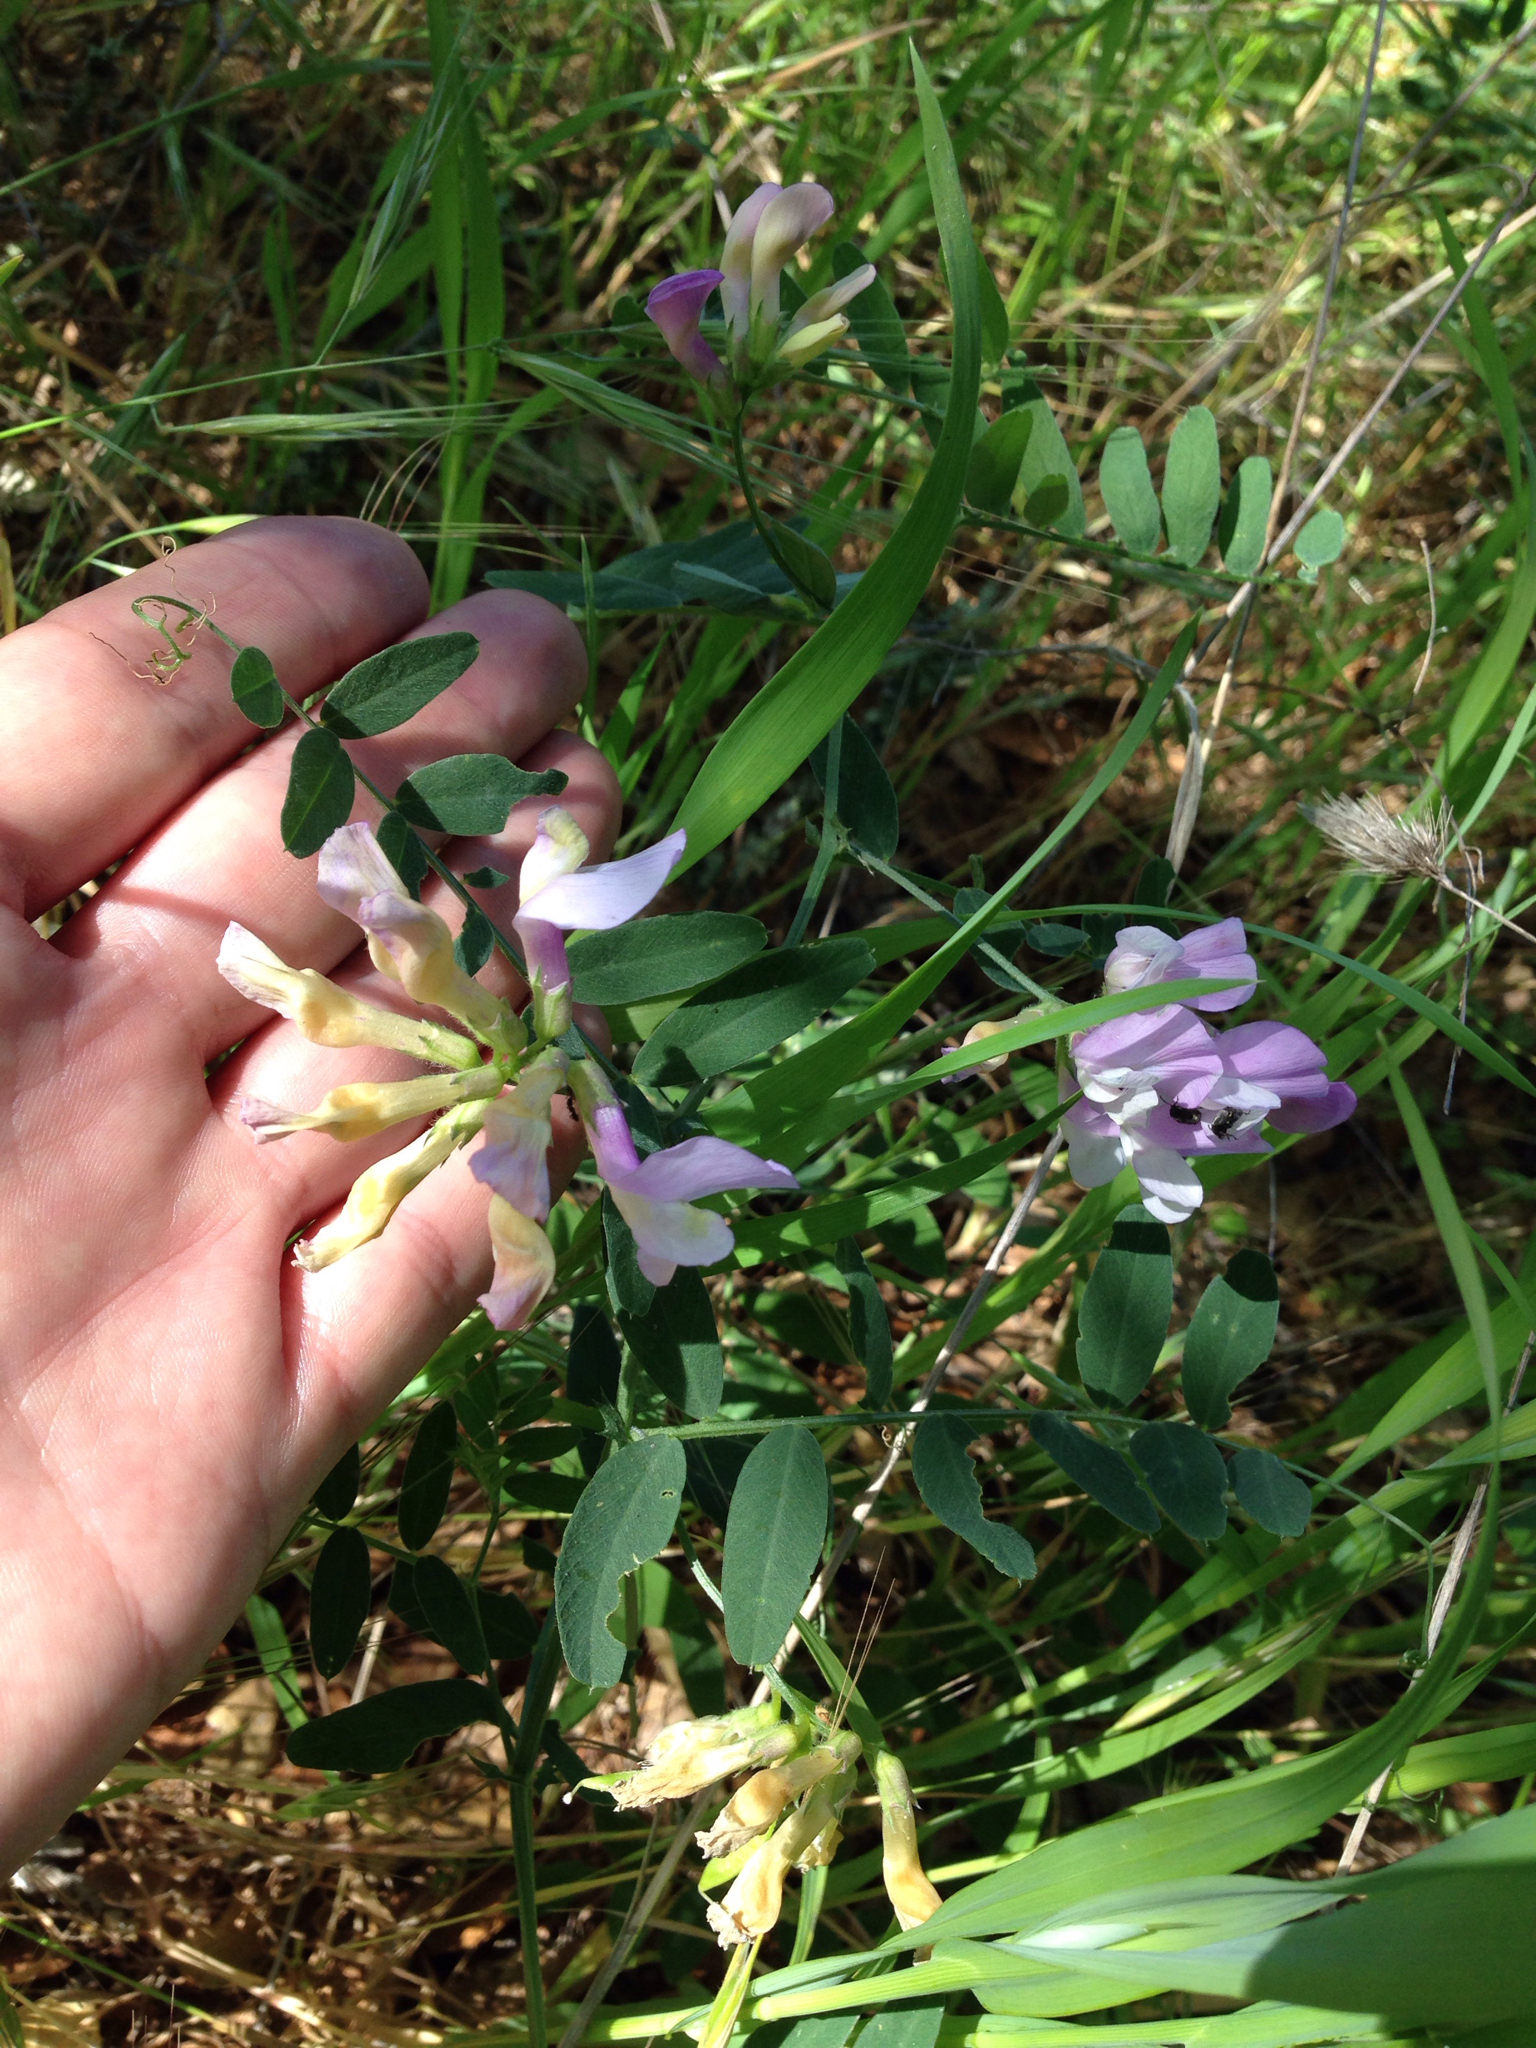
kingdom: Plantae
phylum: Tracheophyta
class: Magnoliopsida
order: Fabales
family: Fabaceae
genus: Lathyrus
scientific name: Lathyrus vestitus
